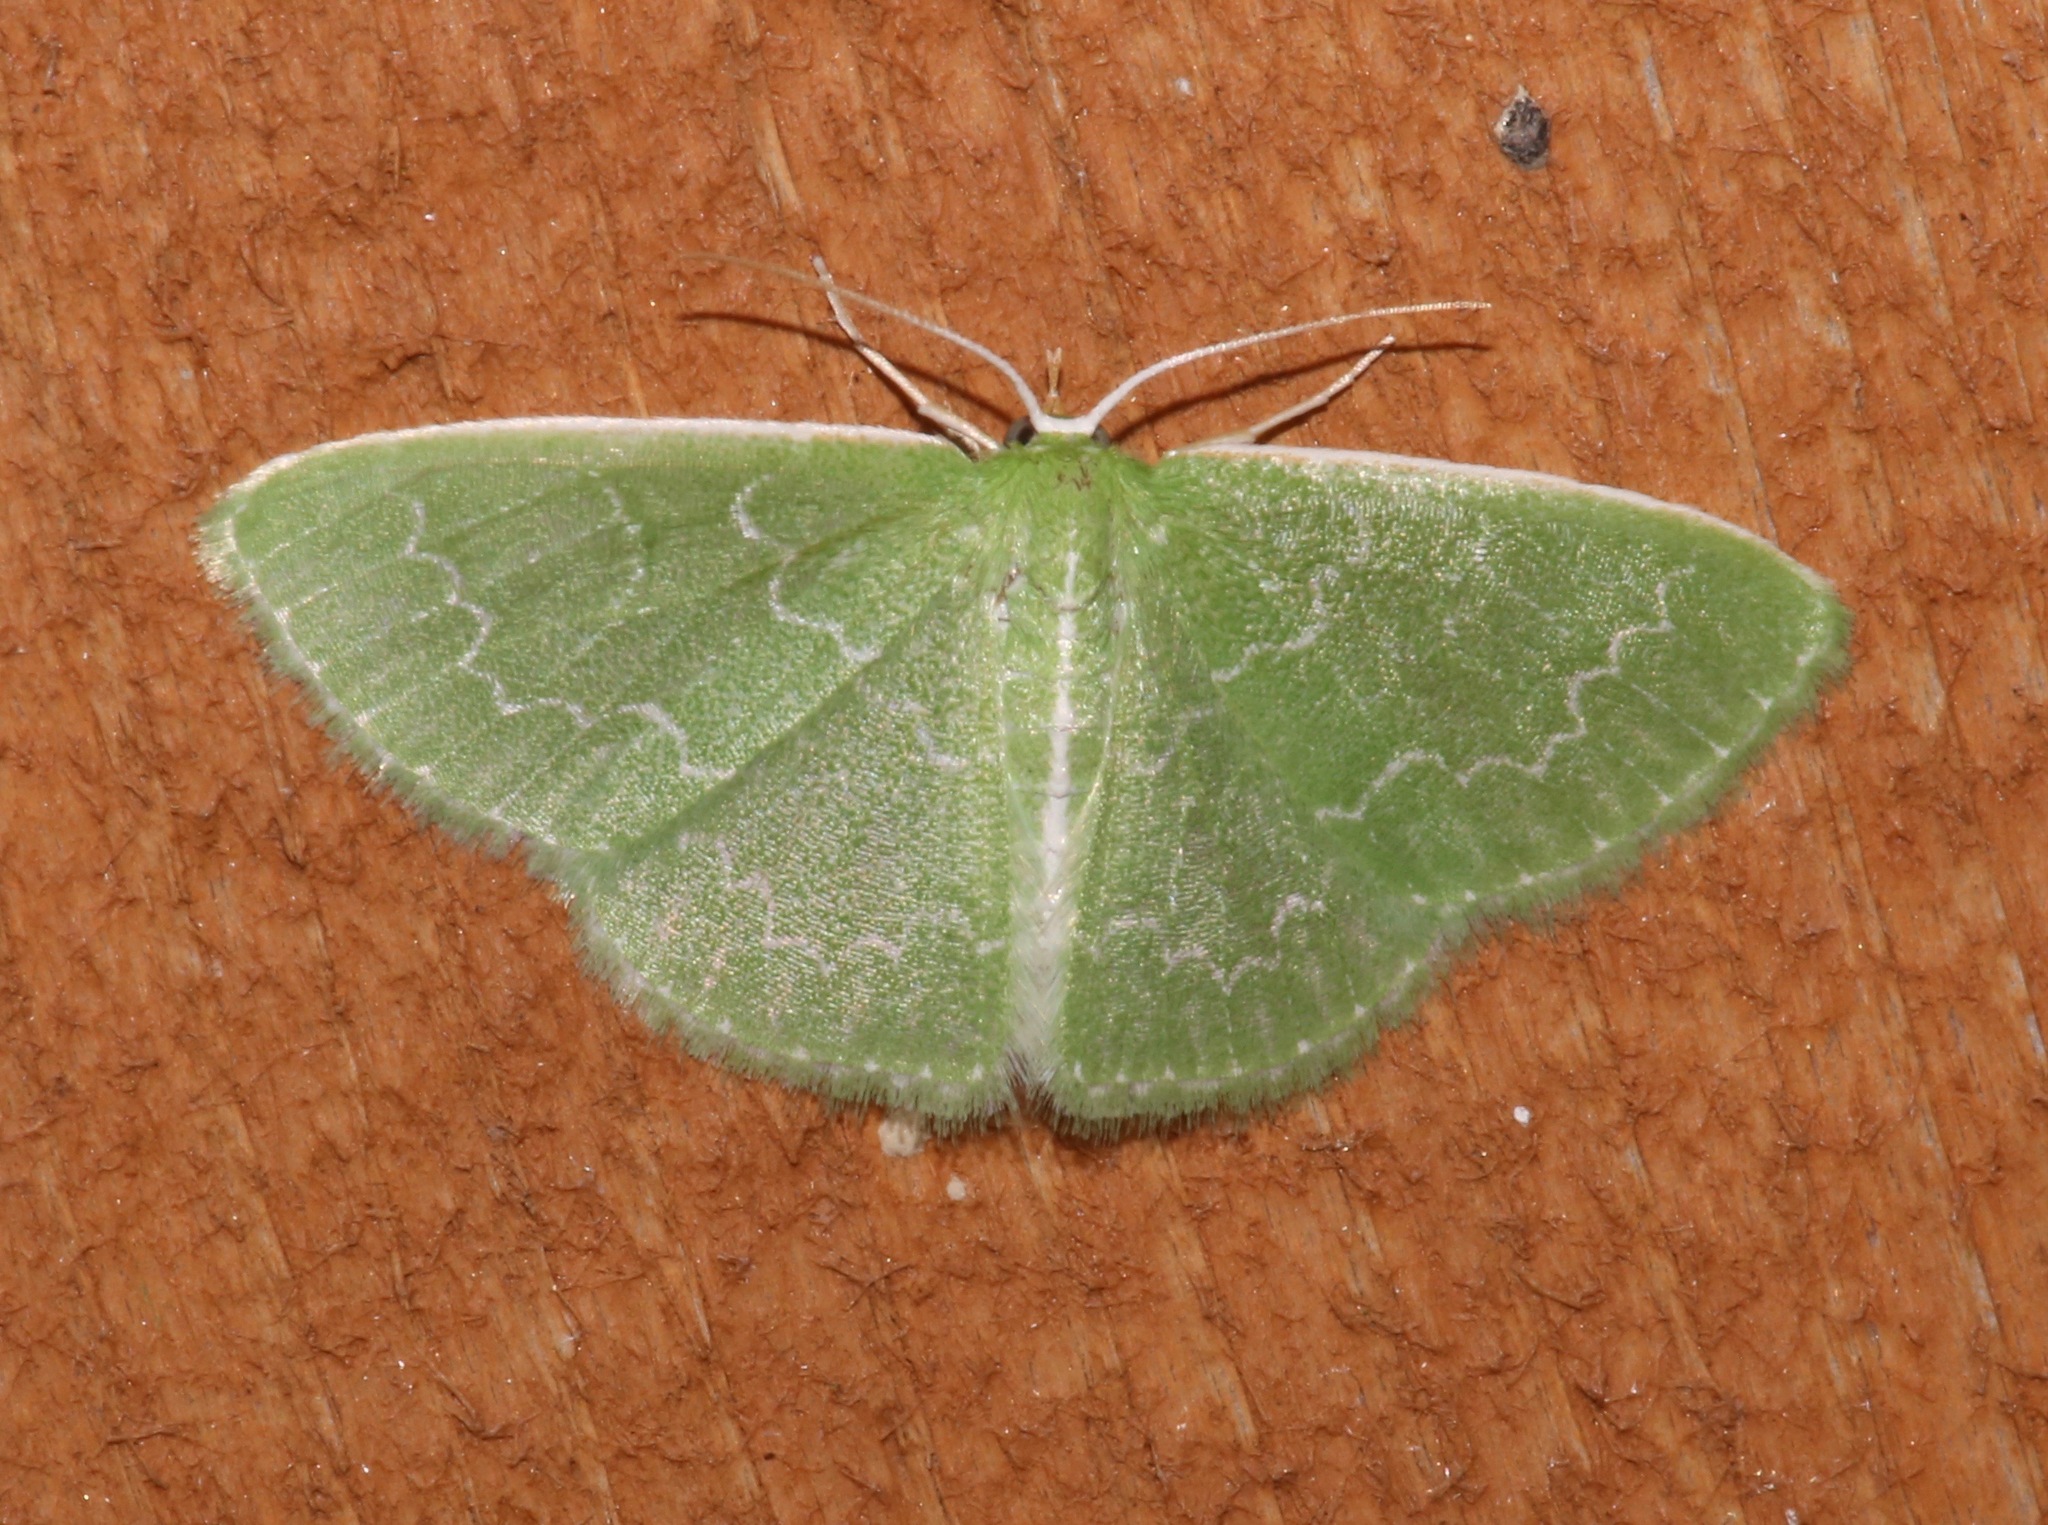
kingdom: Animalia
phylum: Arthropoda
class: Insecta
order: Lepidoptera
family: Geometridae
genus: Synchlora
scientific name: Synchlora frondaria
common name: Southern emerald
